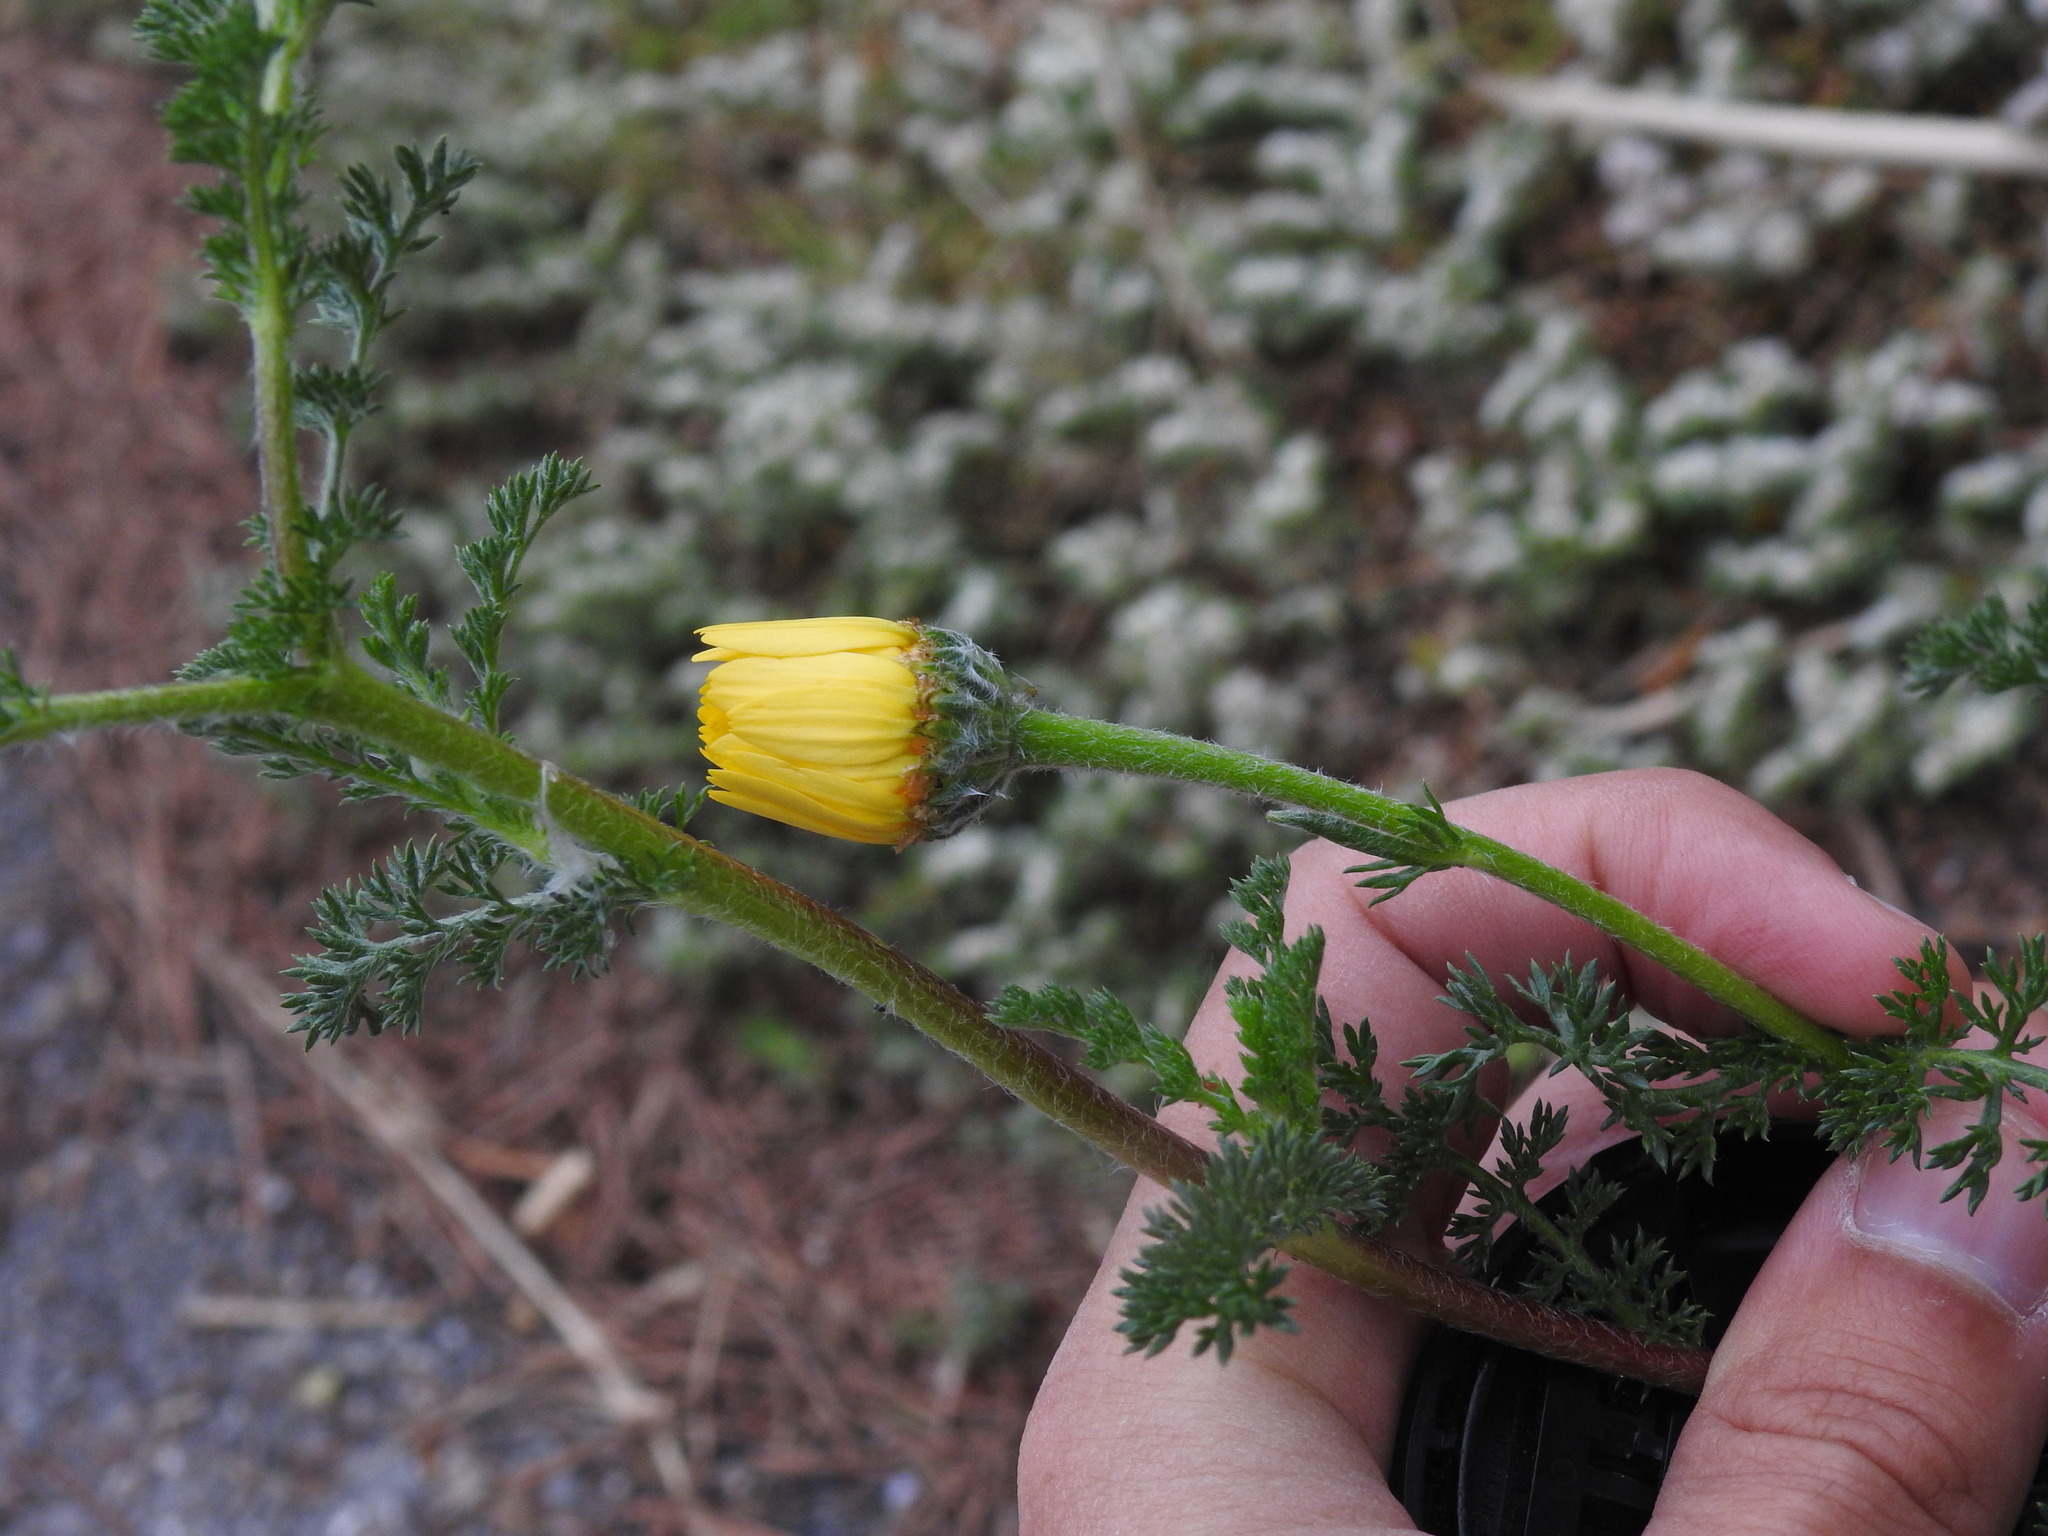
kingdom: Plantae
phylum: Tracheophyta
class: Magnoliopsida
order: Asterales
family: Asteraceae
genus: Anacyclus
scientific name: Anacyclus radiatus
